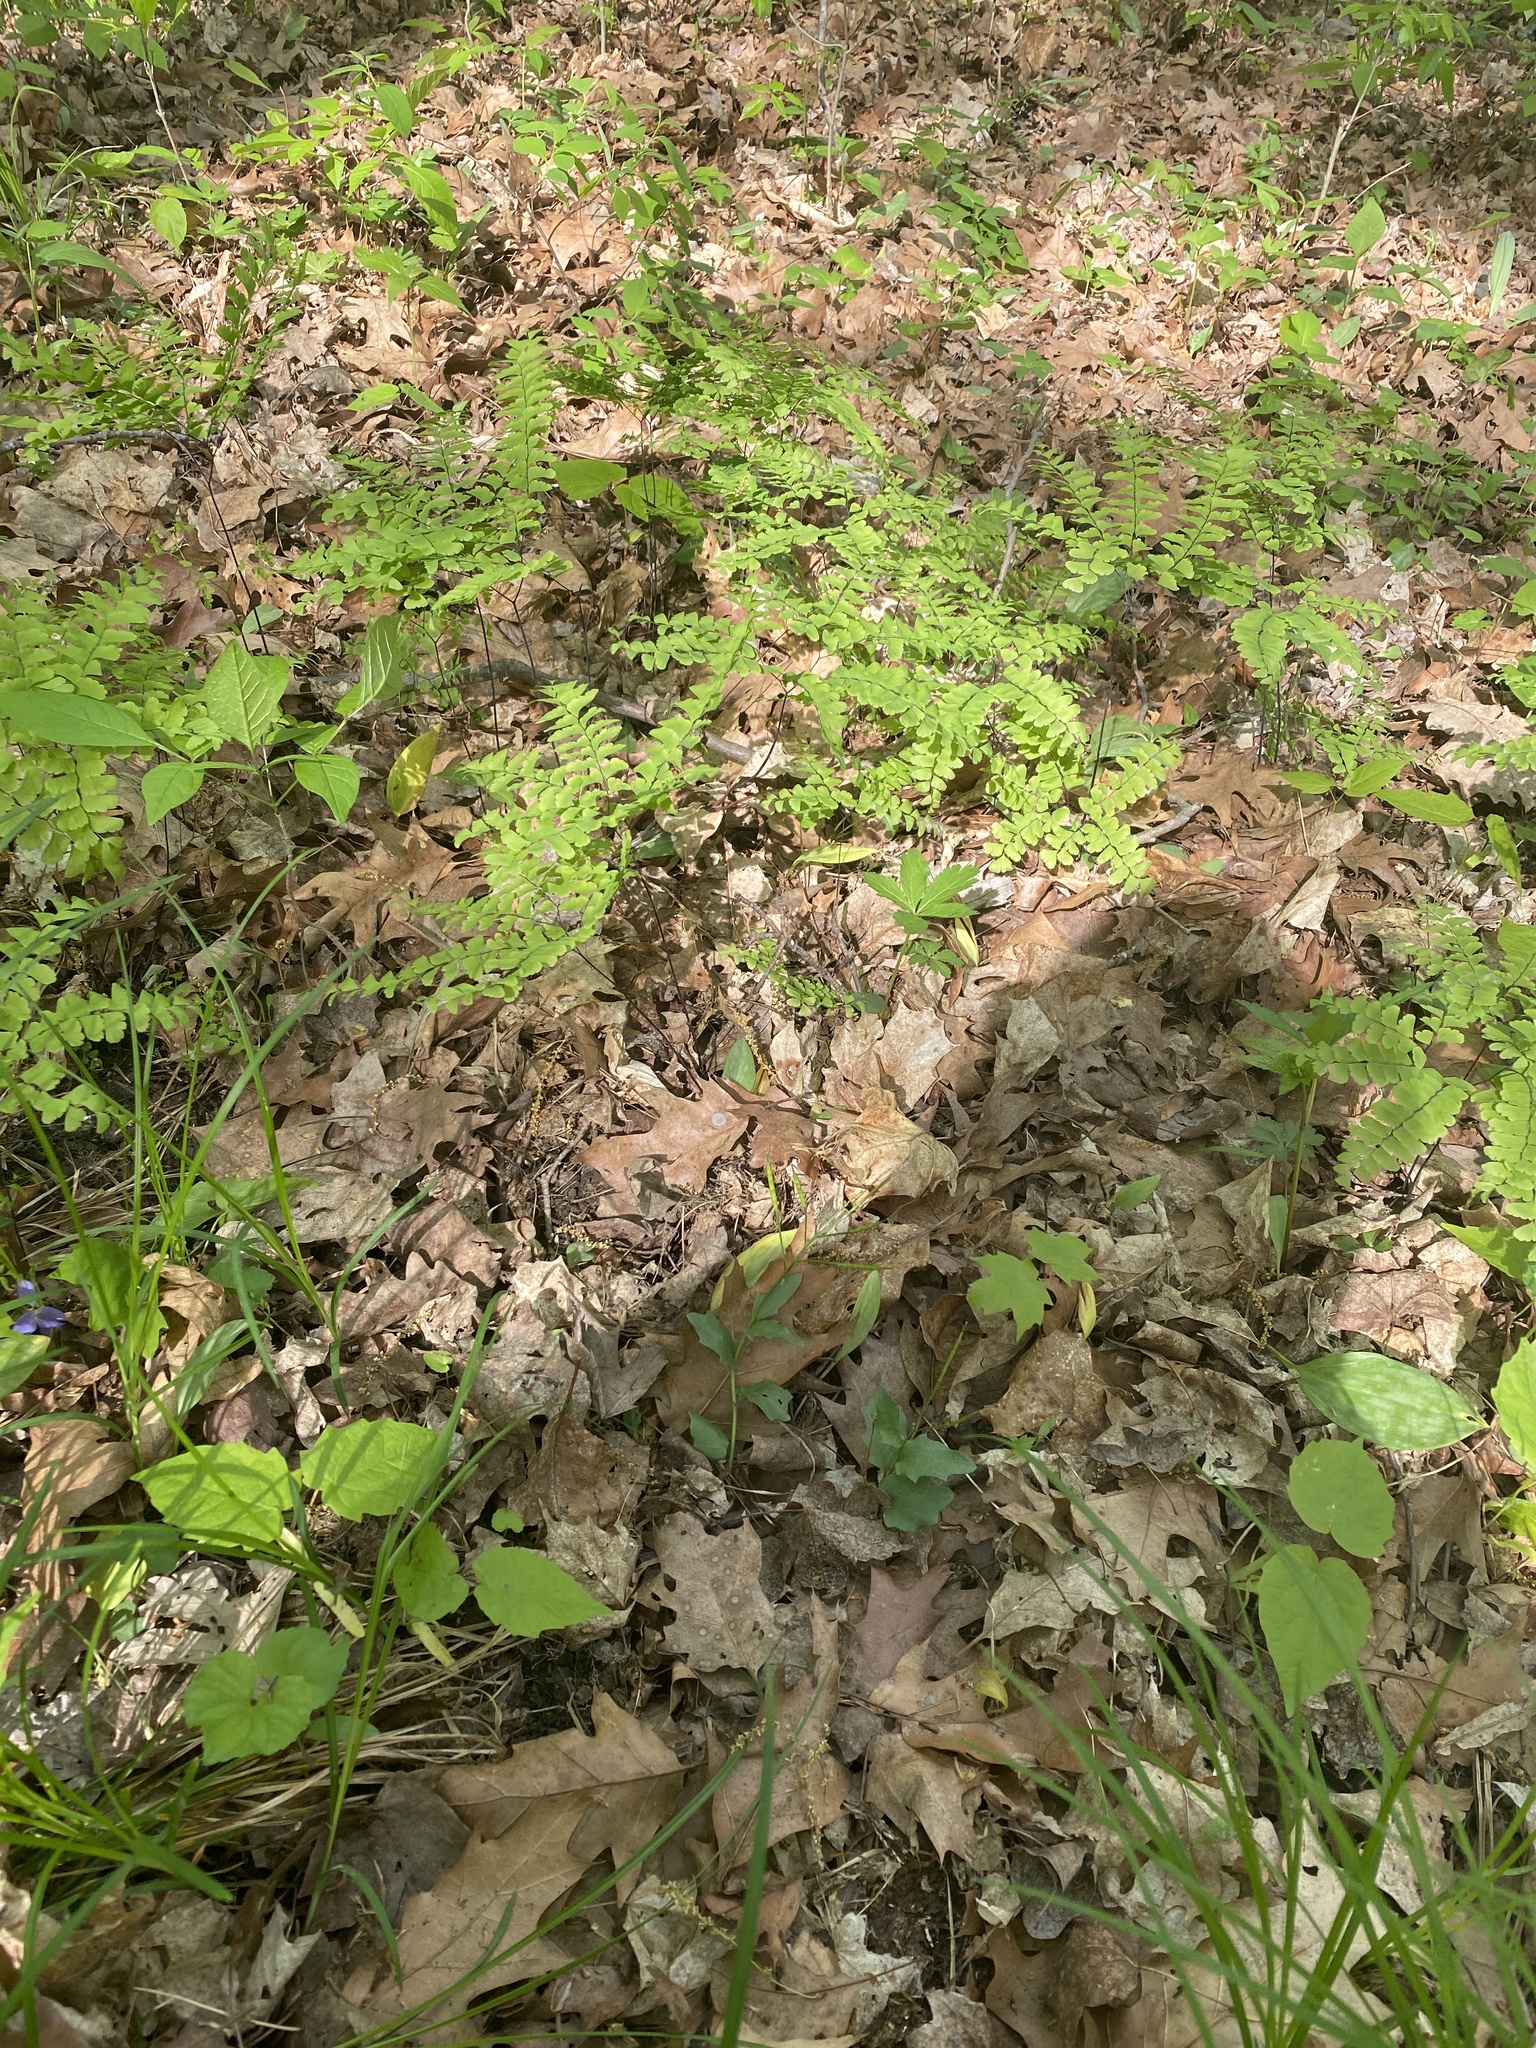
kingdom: Plantae
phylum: Tracheophyta
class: Polypodiopsida
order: Polypodiales
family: Pteridaceae
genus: Adiantum
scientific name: Adiantum pedatum
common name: Five-finger fern
